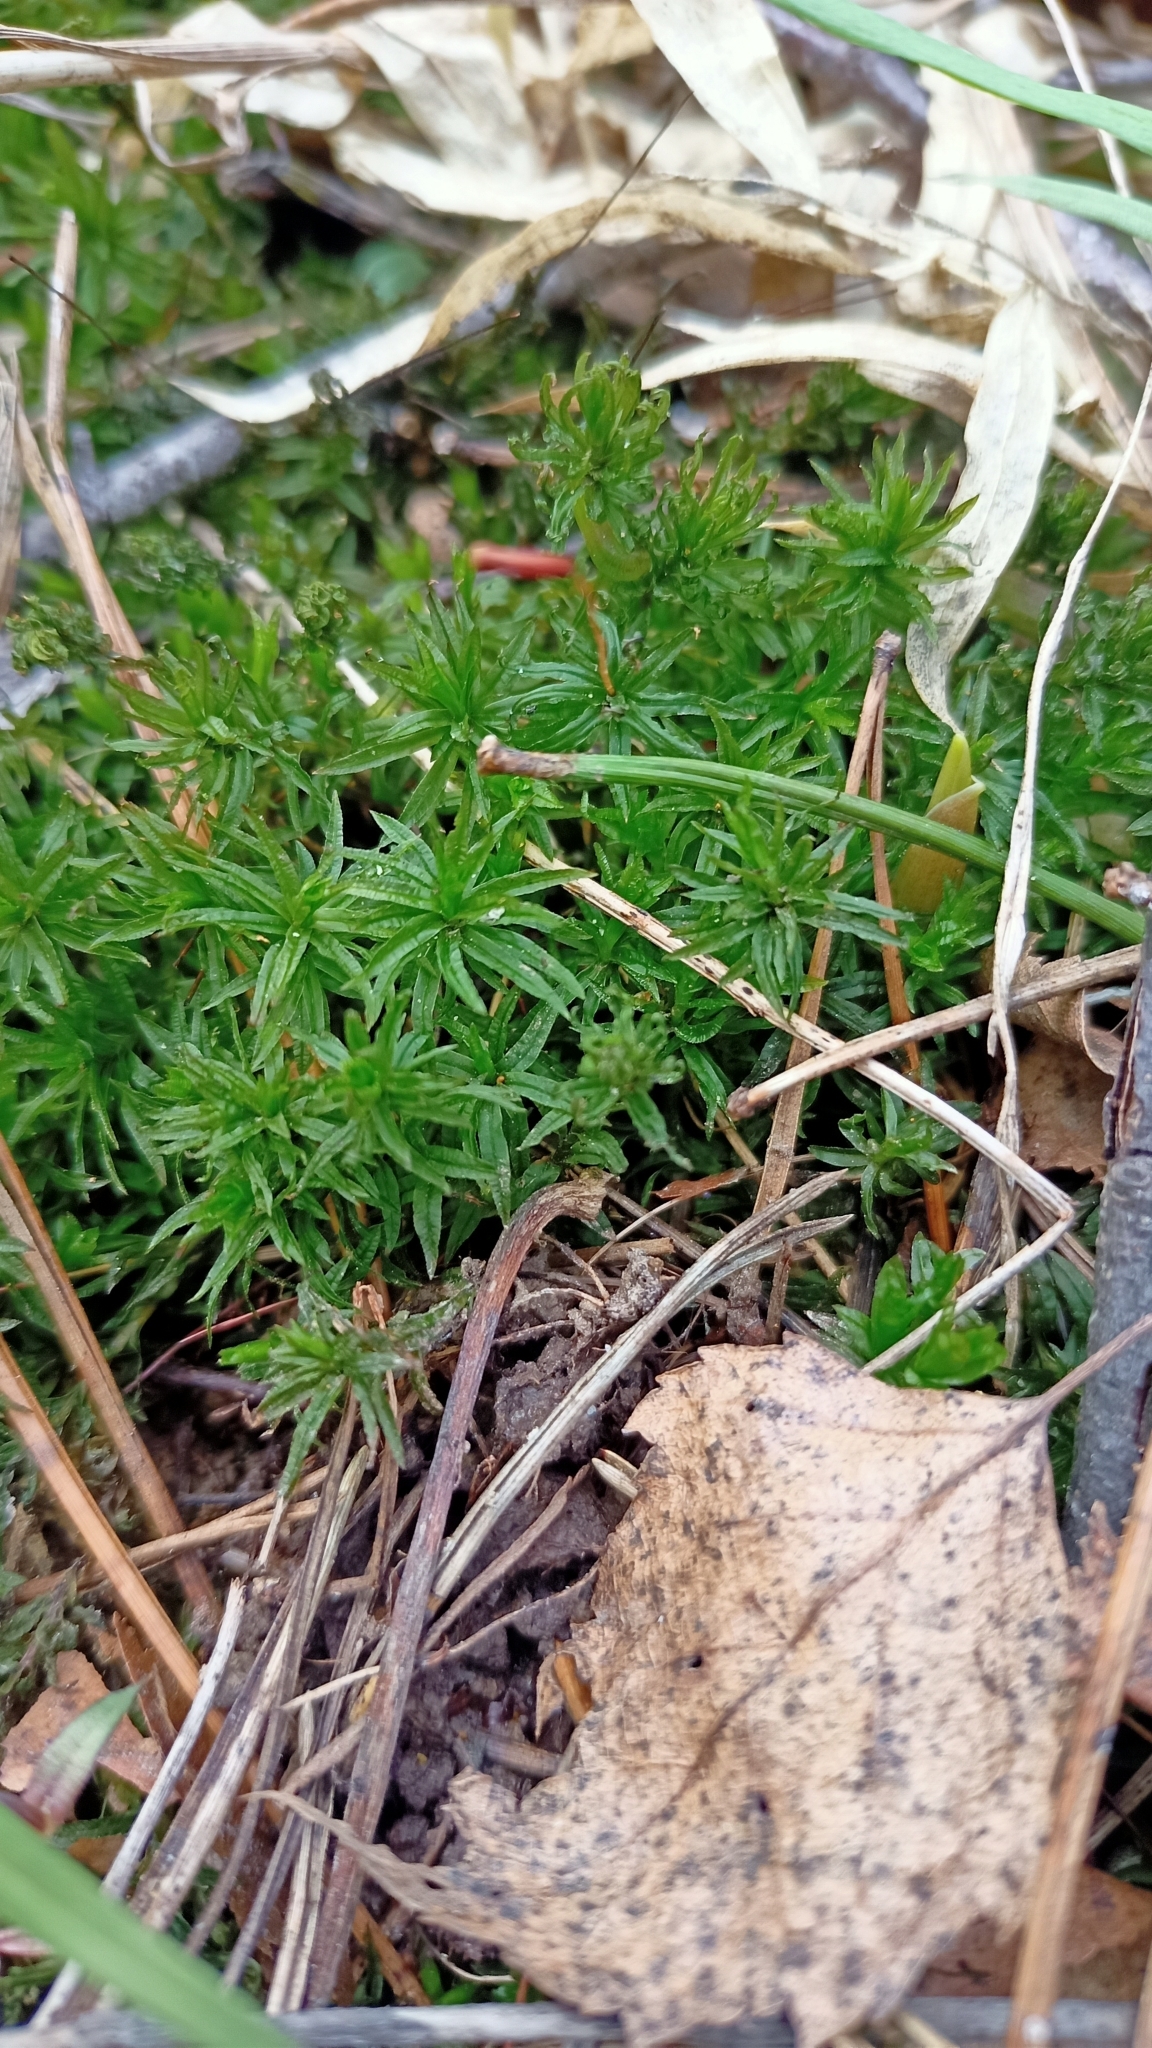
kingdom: Plantae
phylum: Bryophyta
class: Polytrichopsida
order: Polytrichales
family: Polytrichaceae
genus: Atrichum
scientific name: Atrichum undulatum
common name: Common smoothcap
